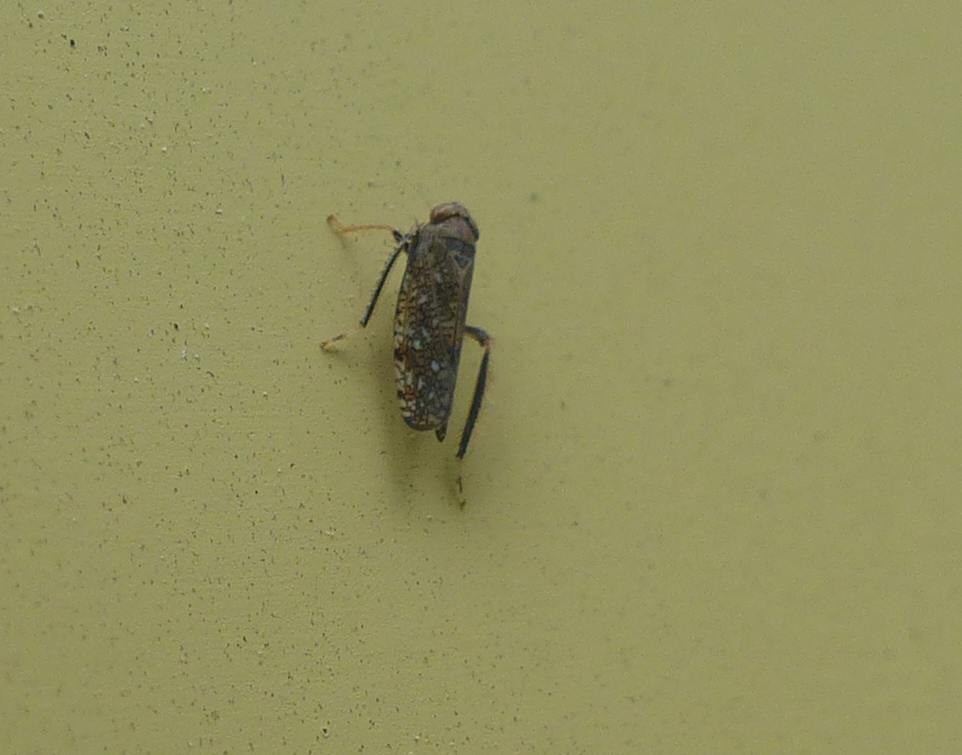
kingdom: Animalia
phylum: Arthropoda
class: Insecta
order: Hemiptera
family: Cicadellidae
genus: Orientus
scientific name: Orientus ishidae
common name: Japanese leafhopper
